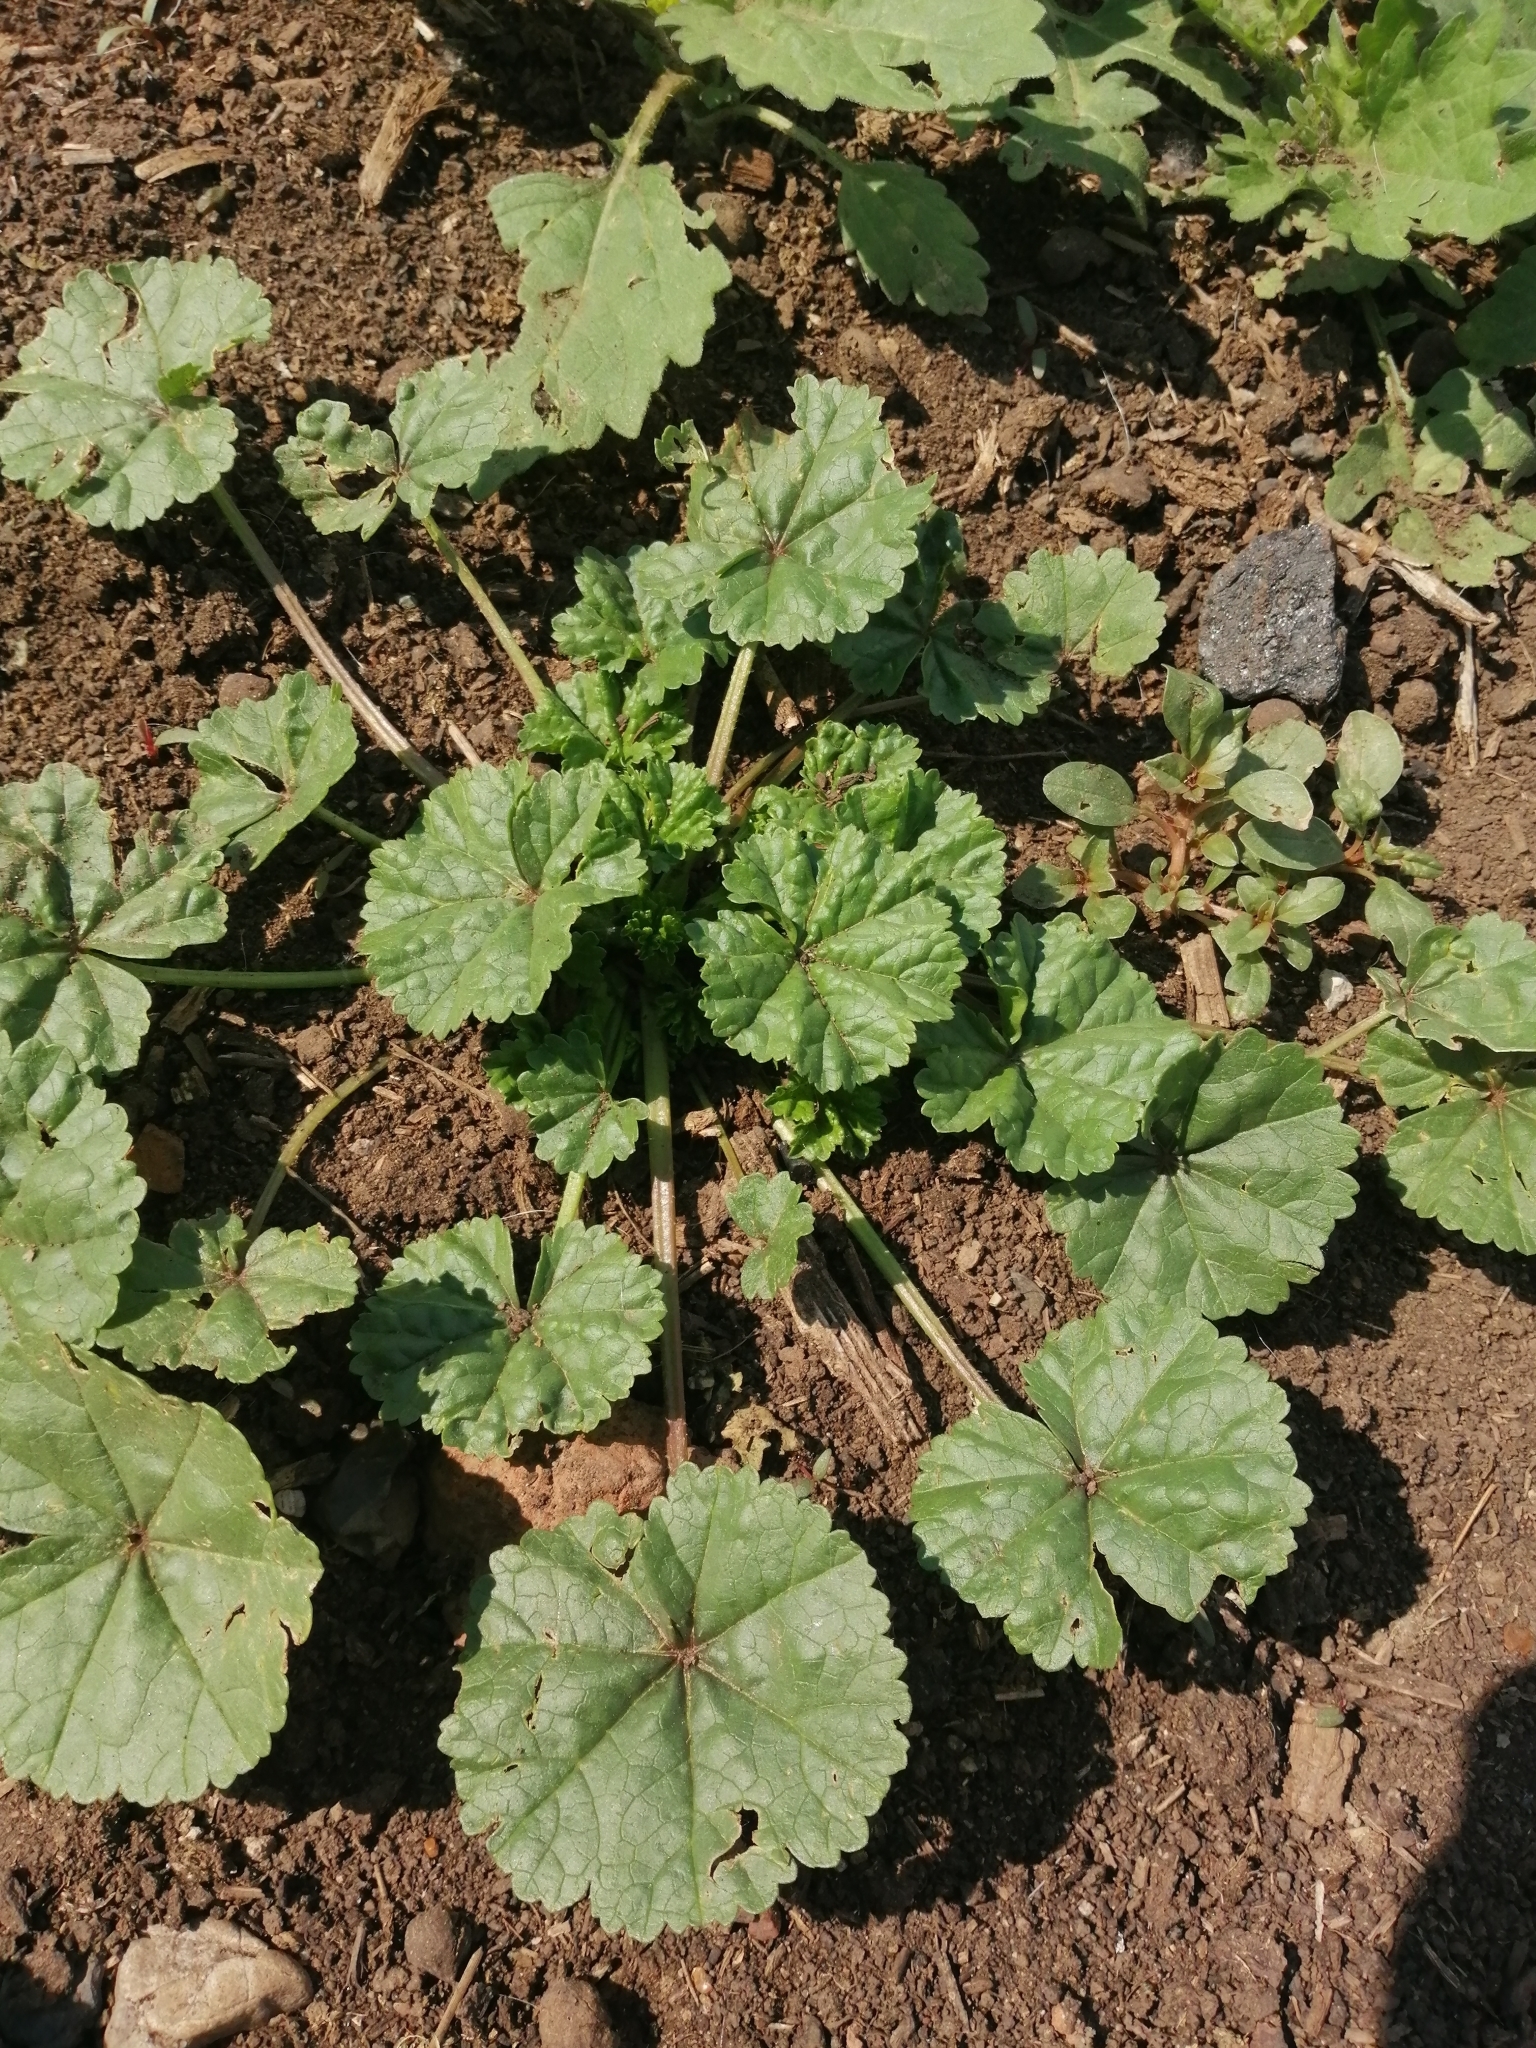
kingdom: Plantae
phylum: Tracheophyta
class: Magnoliopsida
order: Malvales
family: Malvaceae
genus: Malva
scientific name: Malva pusilla
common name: Small mallow
